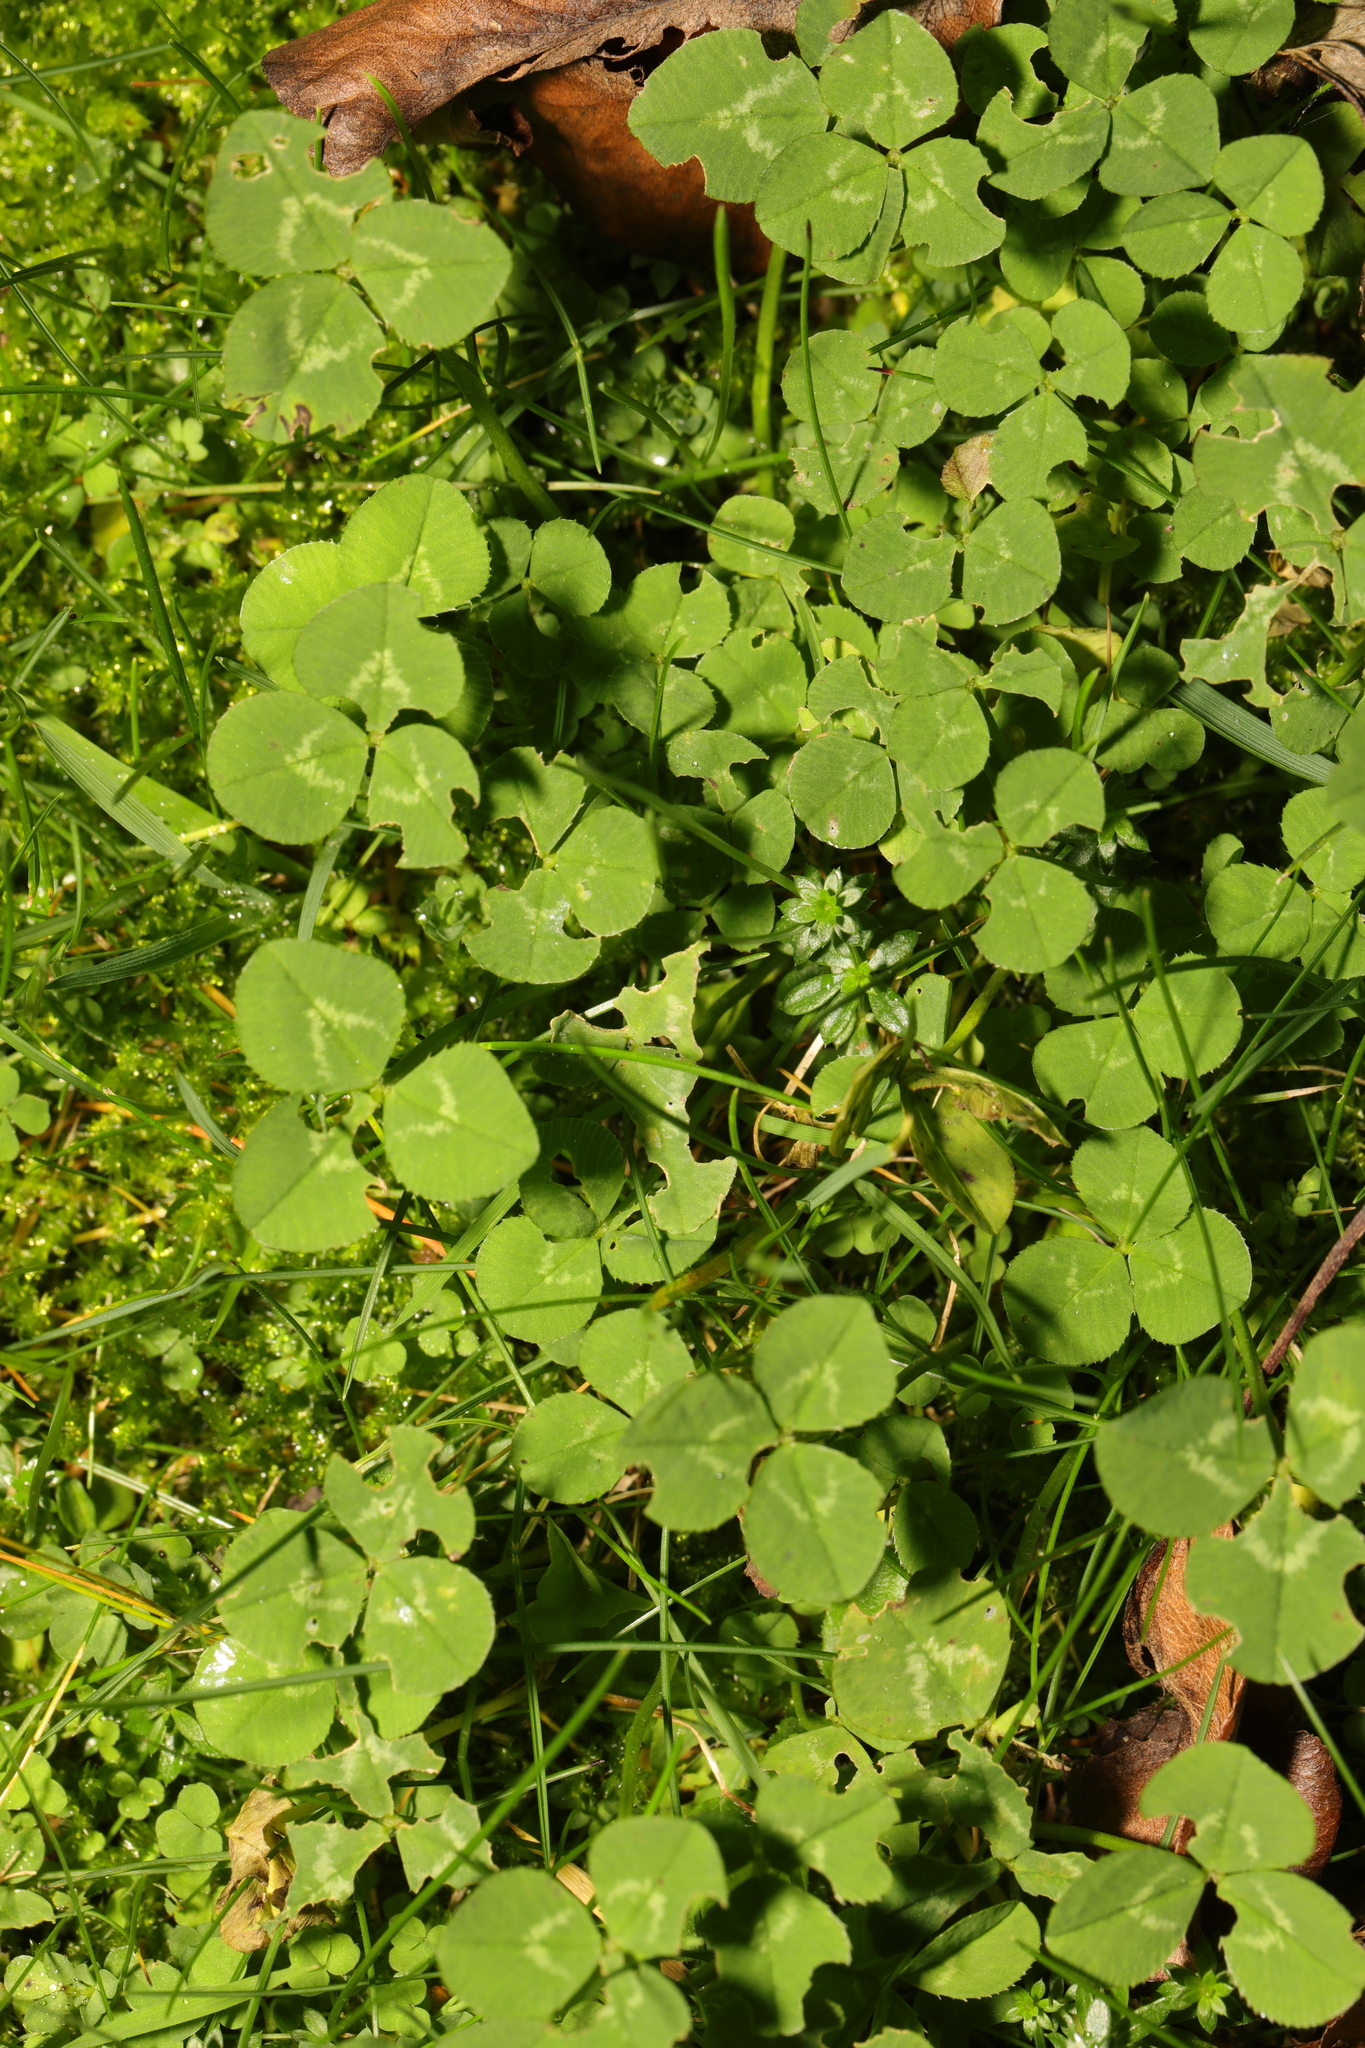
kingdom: Plantae
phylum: Tracheophyta
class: Magnoliopsida
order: Fabales
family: Fabaceae
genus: Trifolium
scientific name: Trifolium repens
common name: White clover
